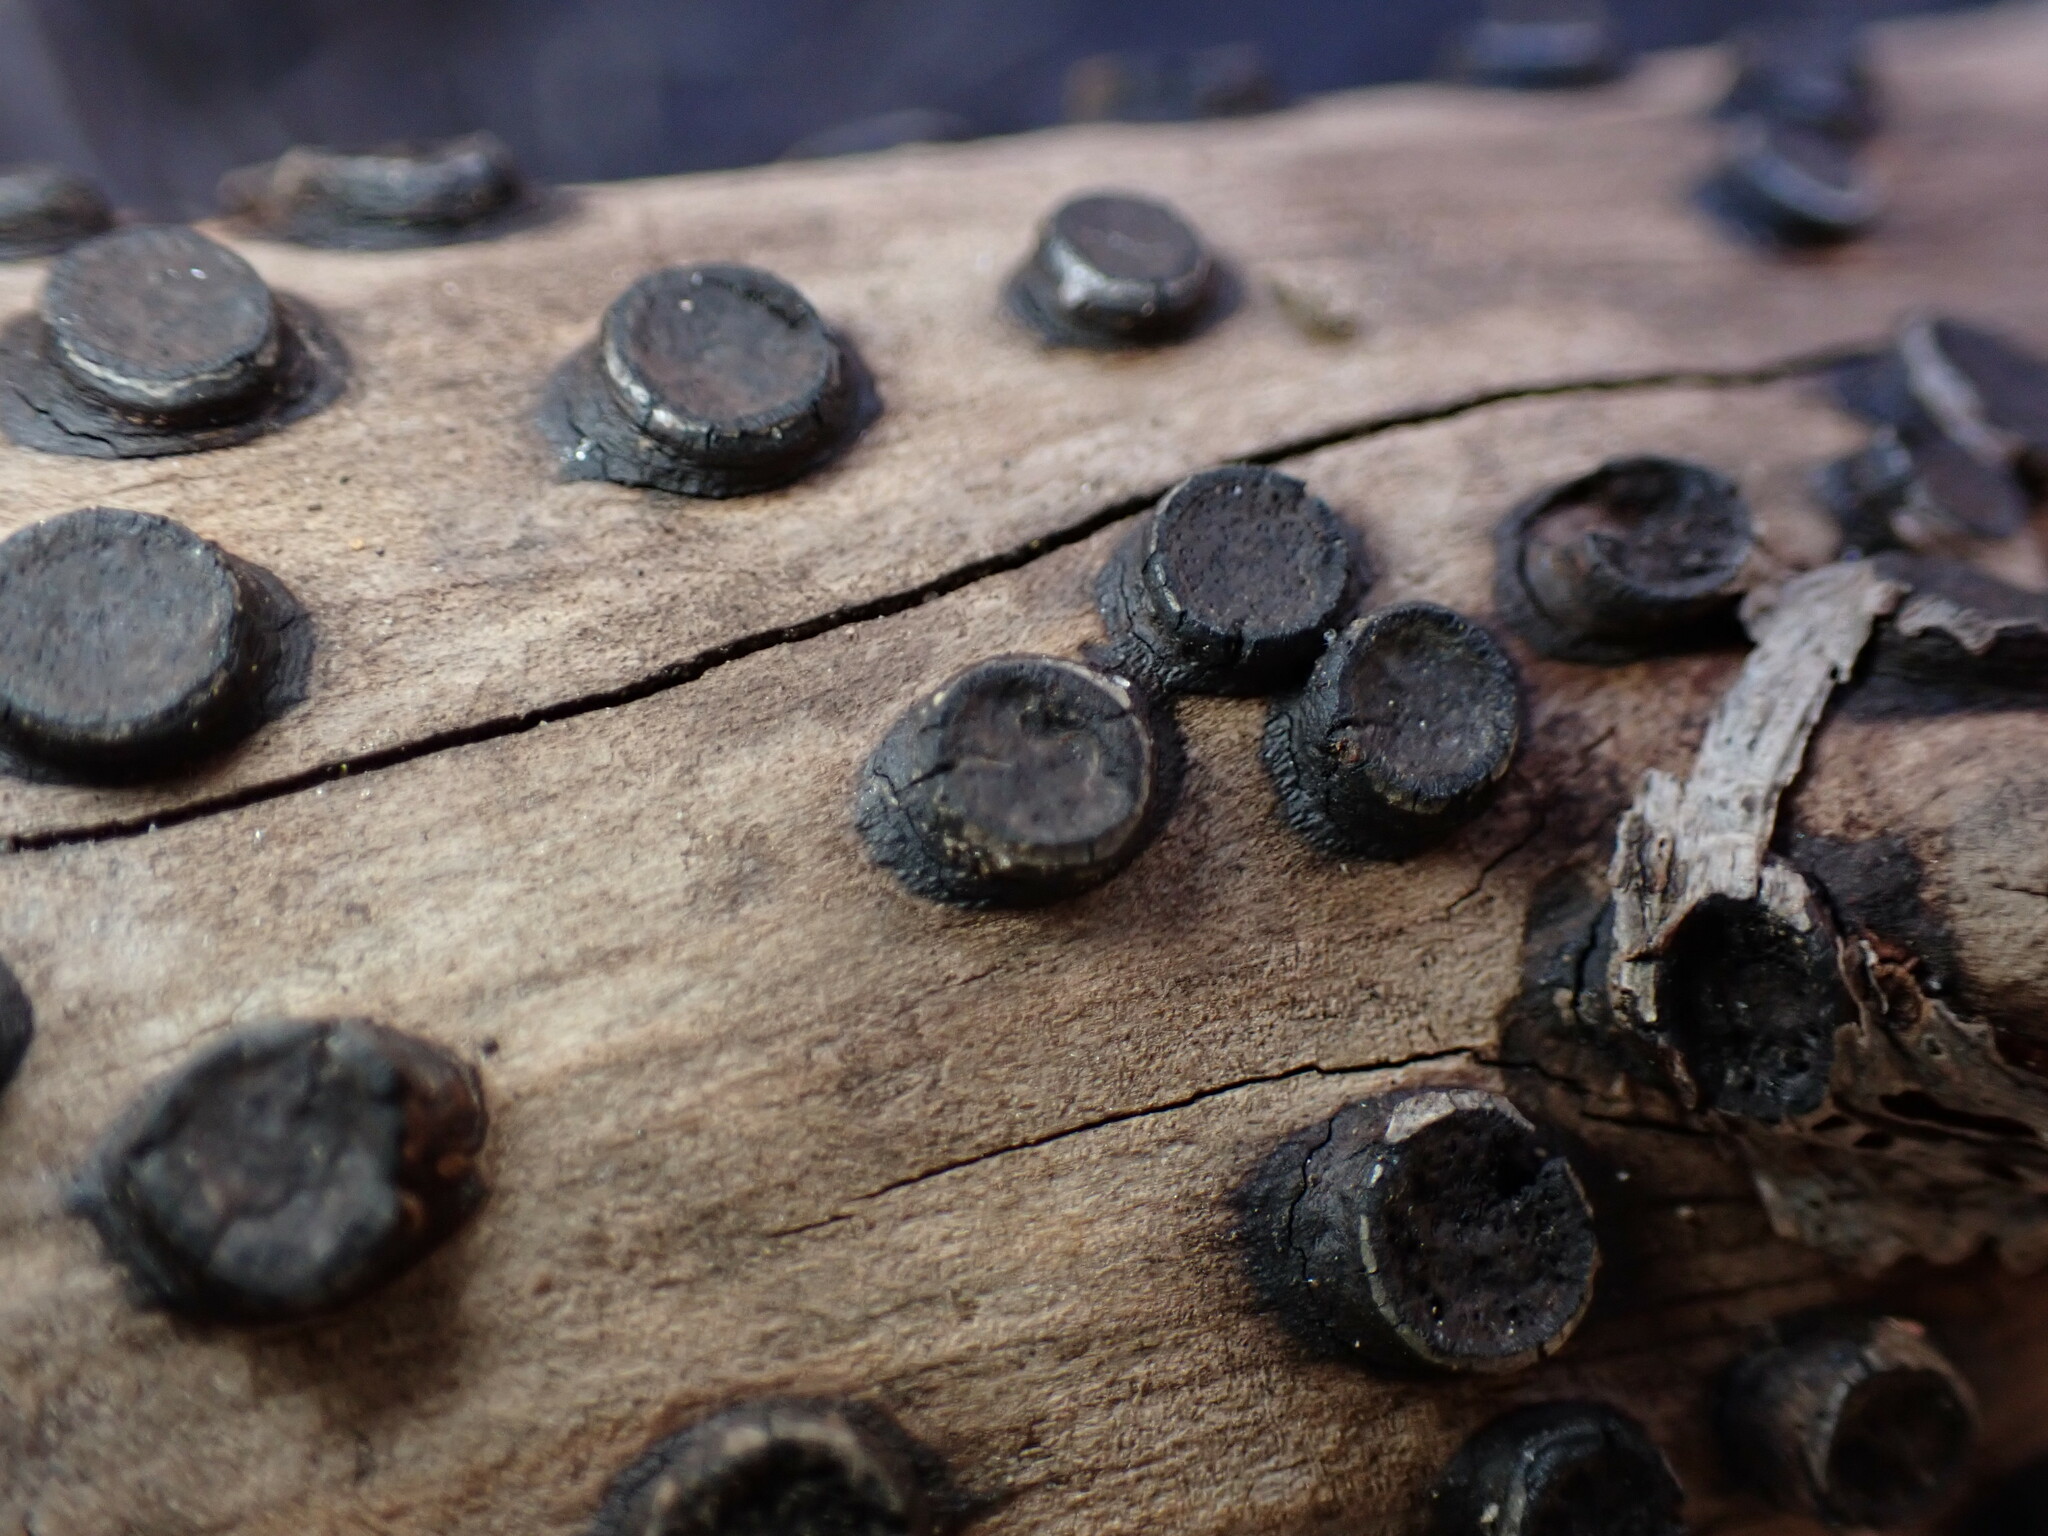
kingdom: Fungi
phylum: Ascomycota
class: Sordariomycetes
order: Xylariales
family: Graphostromataceae
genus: Biscogniauxia
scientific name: Biscogniauxia marginata
